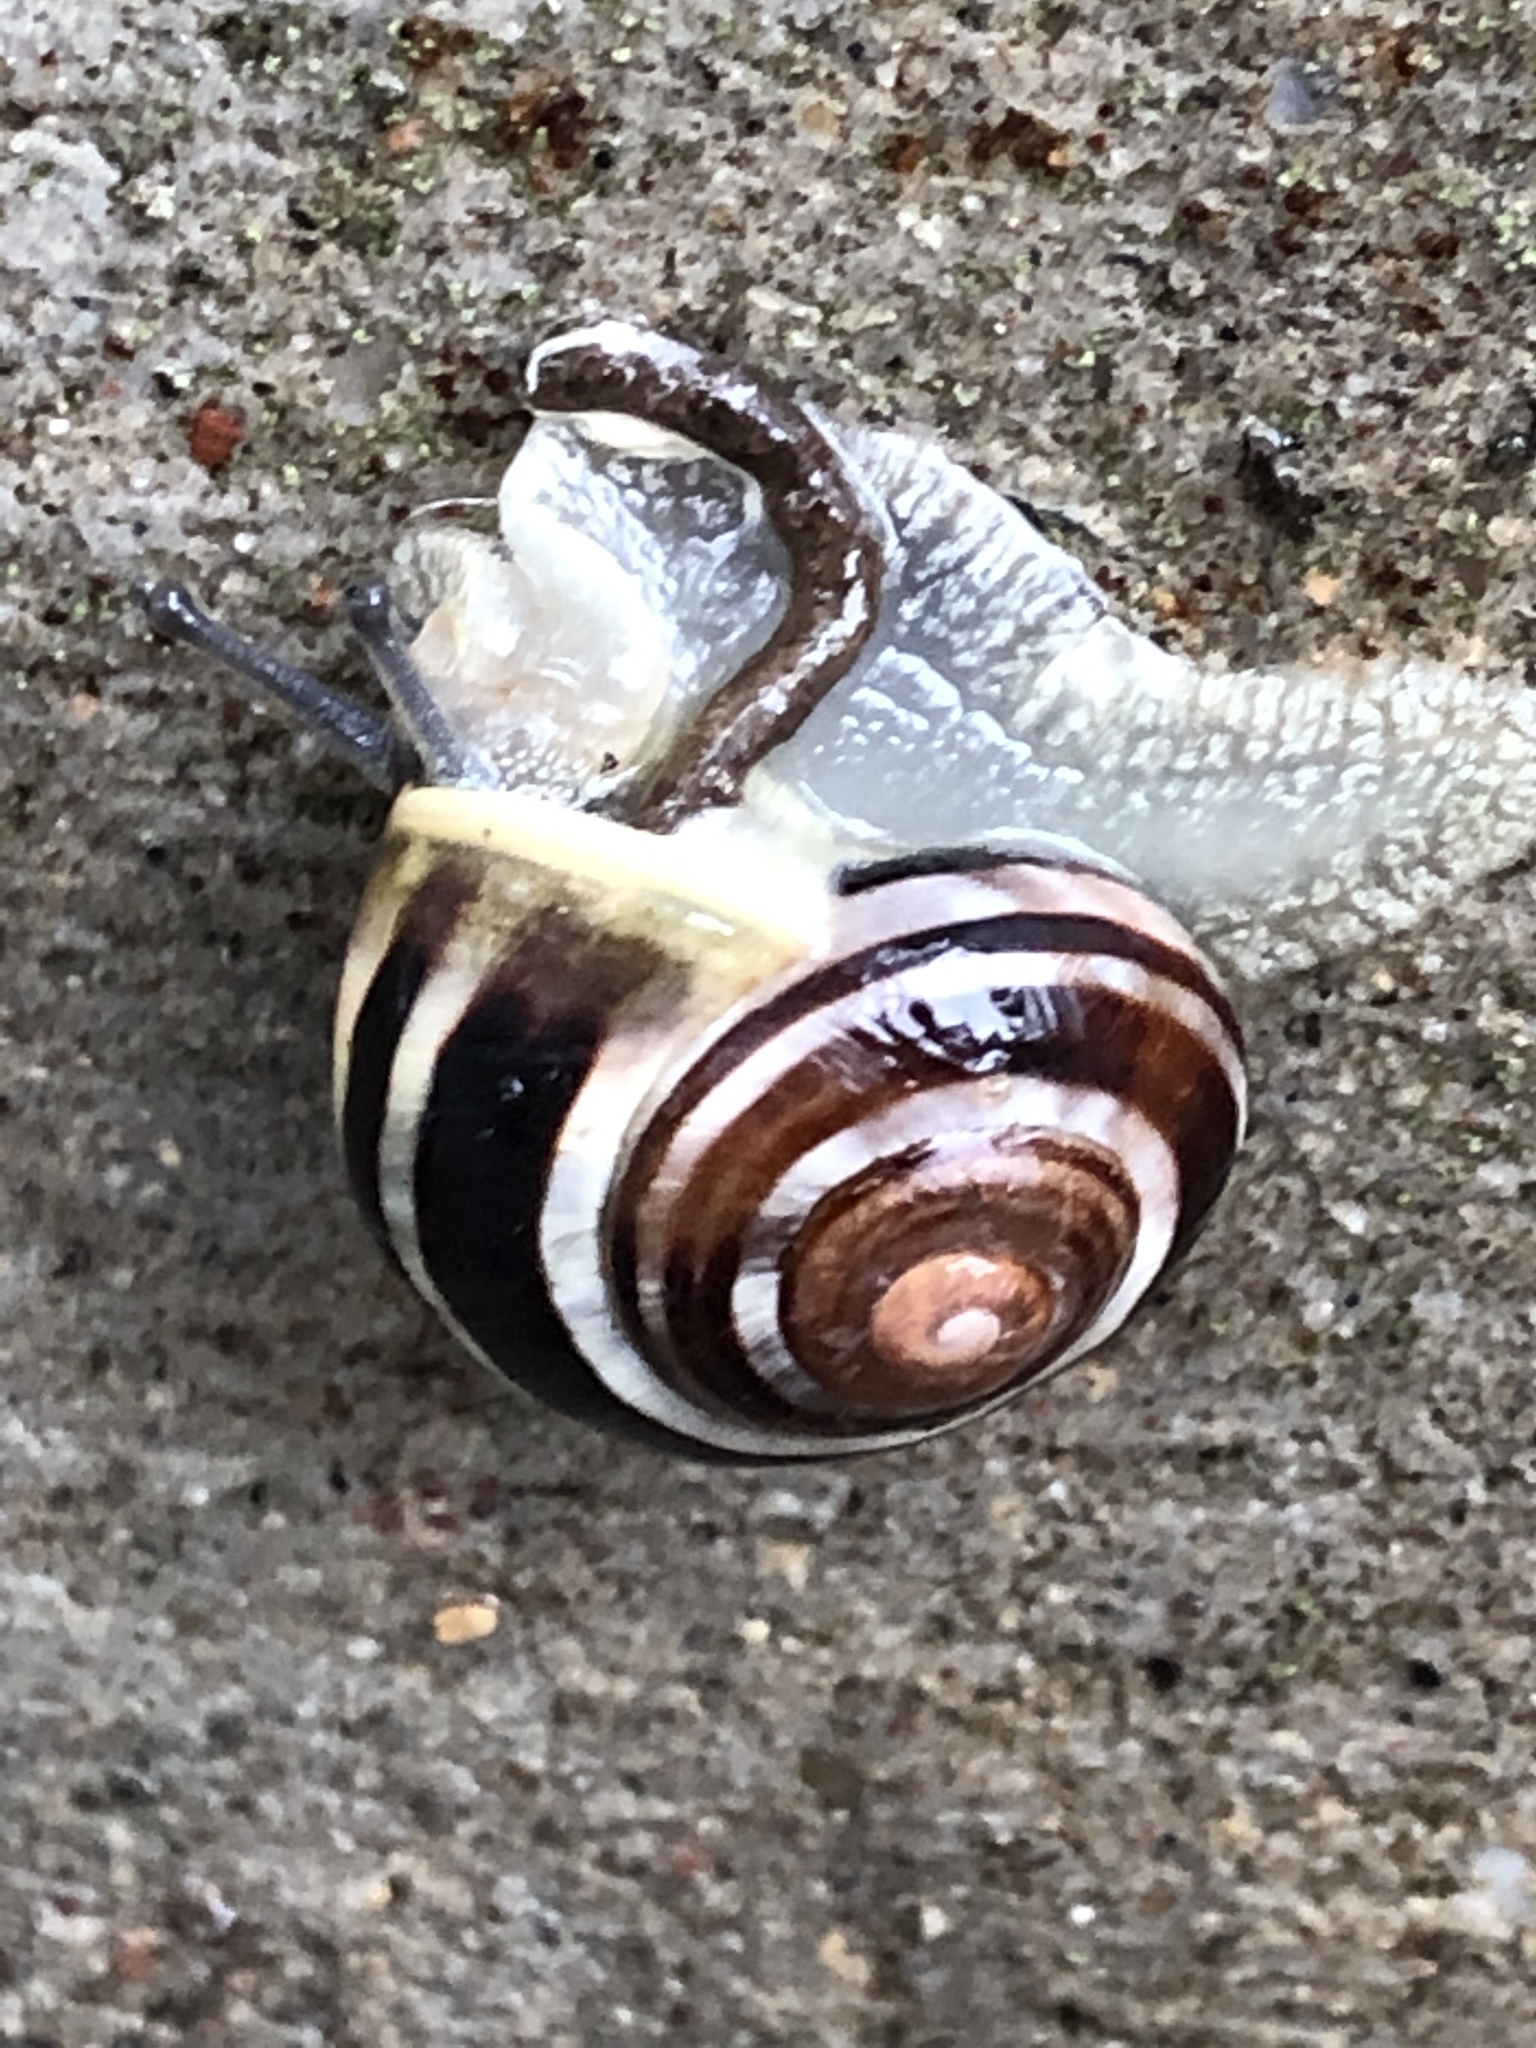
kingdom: Animalia
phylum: Mollusca
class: Gastropoda
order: Stylommatophora
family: Helicidae
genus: Cepaea
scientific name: Cepaea
